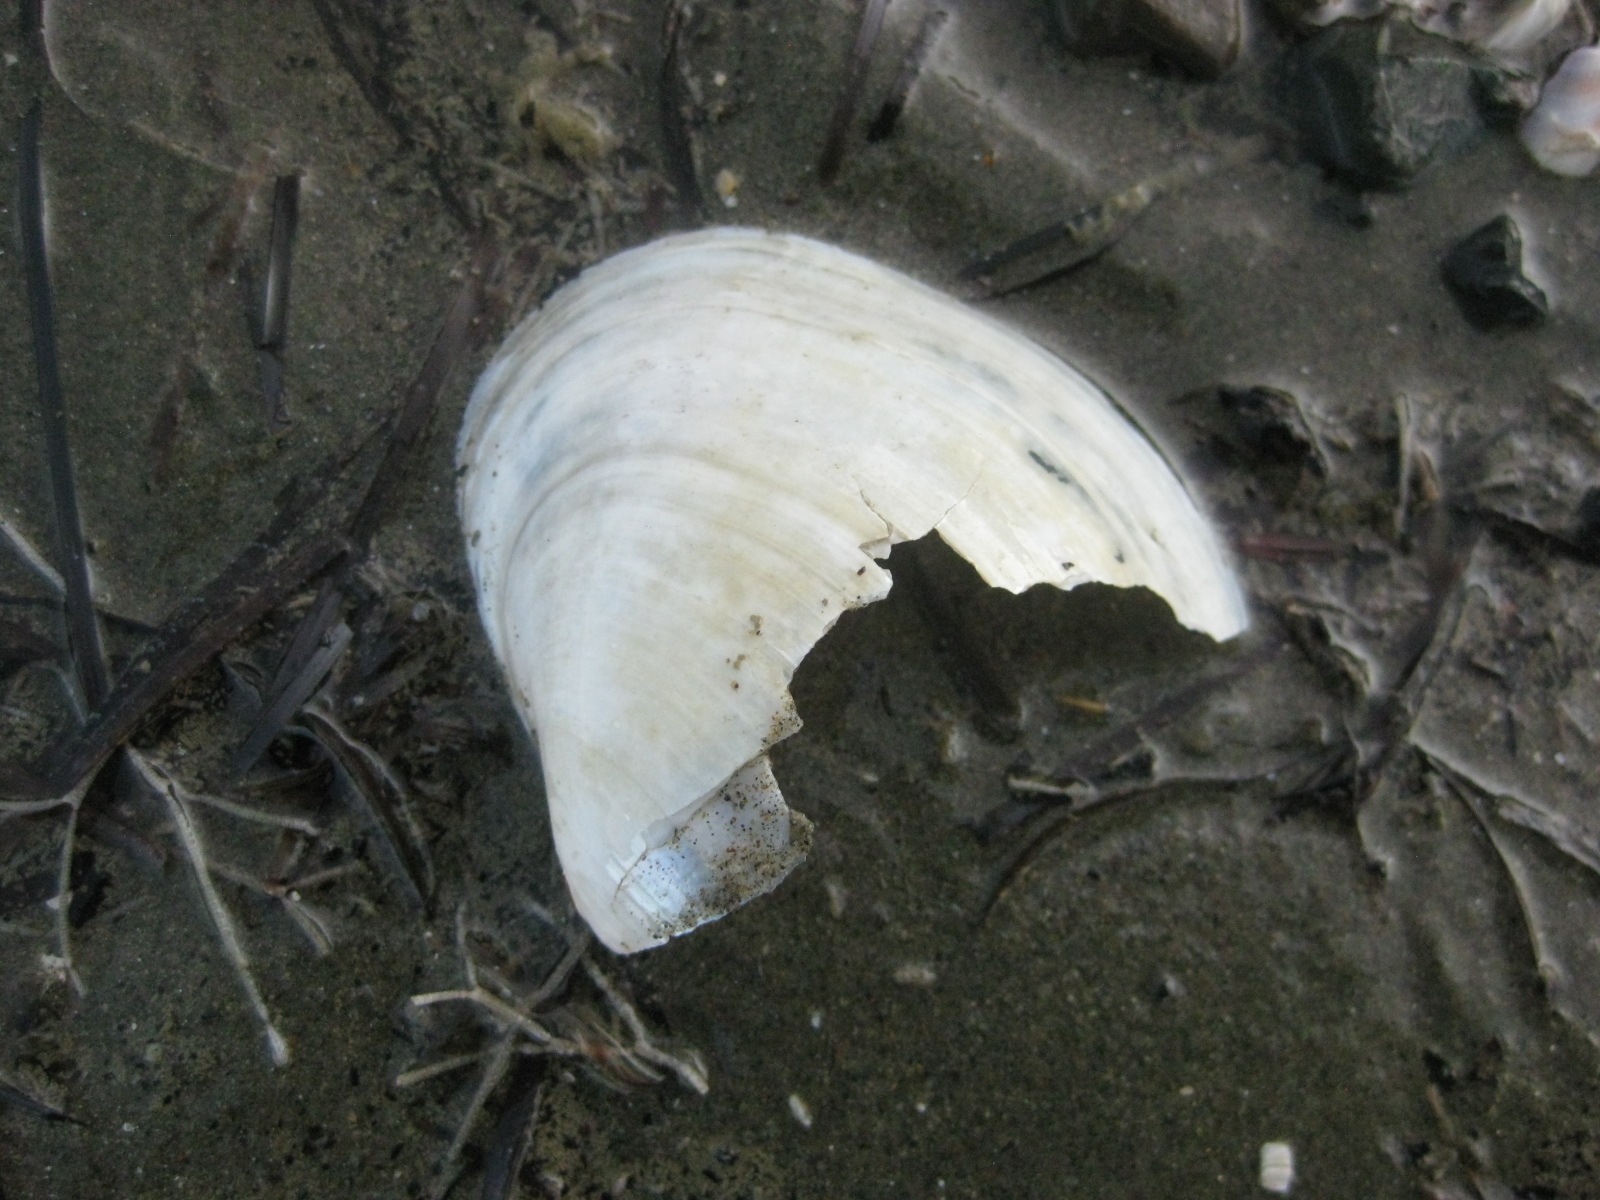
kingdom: Animalia
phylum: Mollusca
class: Bivalvia
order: Venerida
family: Mactridae
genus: Cyclomactra
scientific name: Cyclomactra ovata
